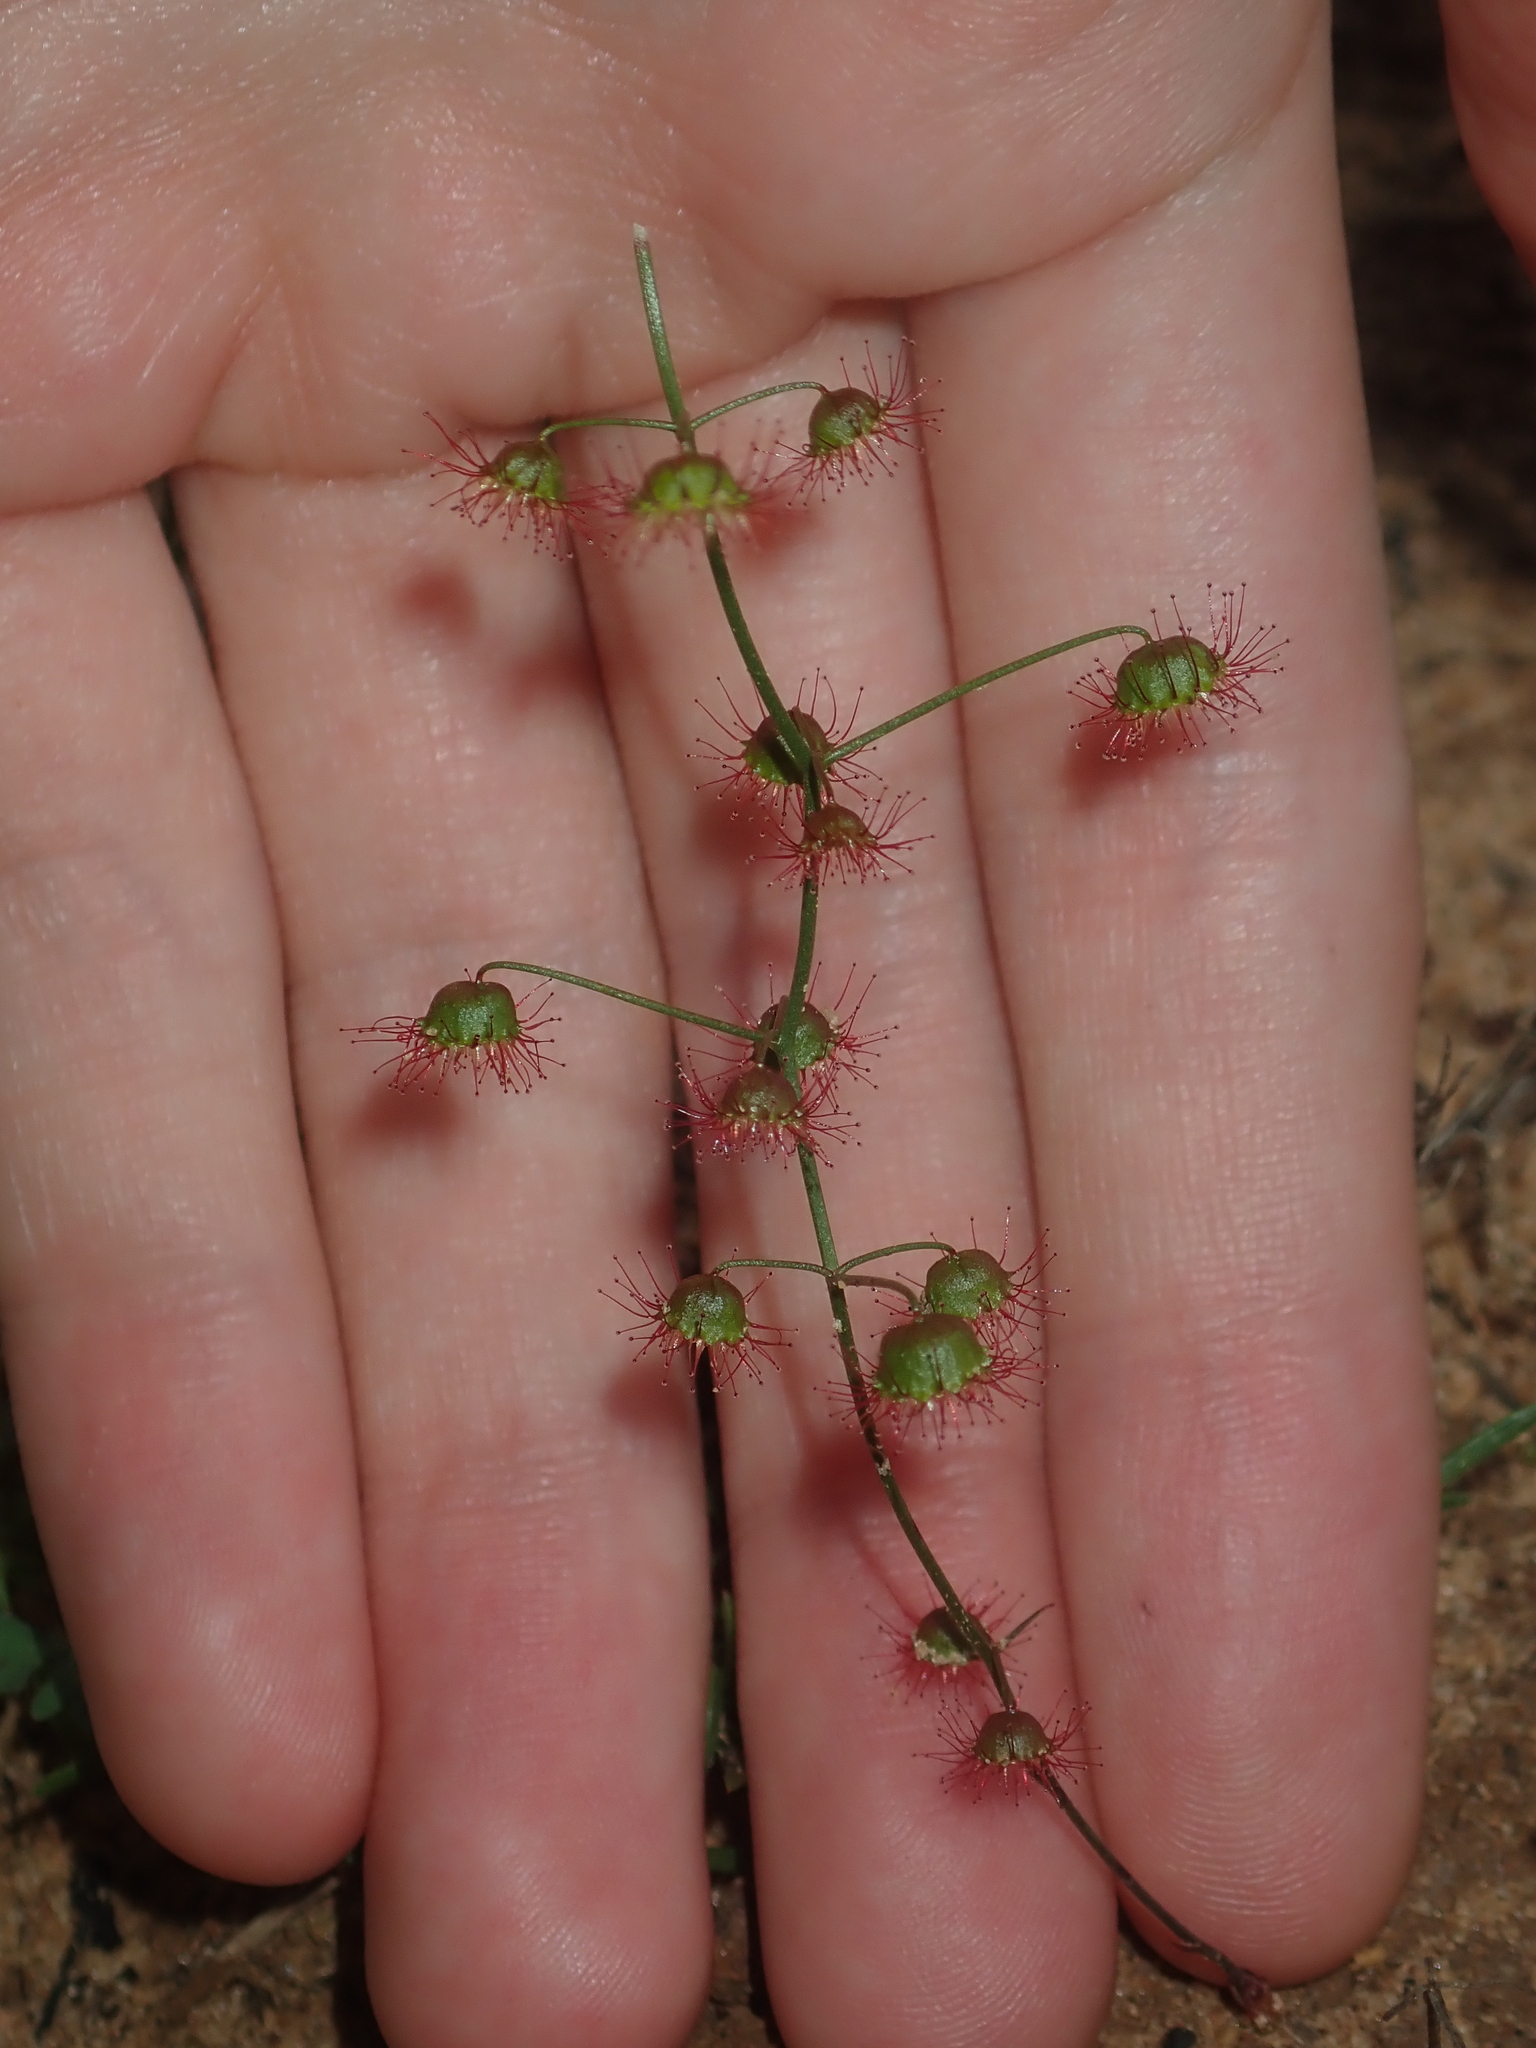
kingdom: Plantae
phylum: Tracheophyta
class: Magnoliopsida
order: Caryophyllales
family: Droseraceae
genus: Drosera
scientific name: Drosera hirsuta
